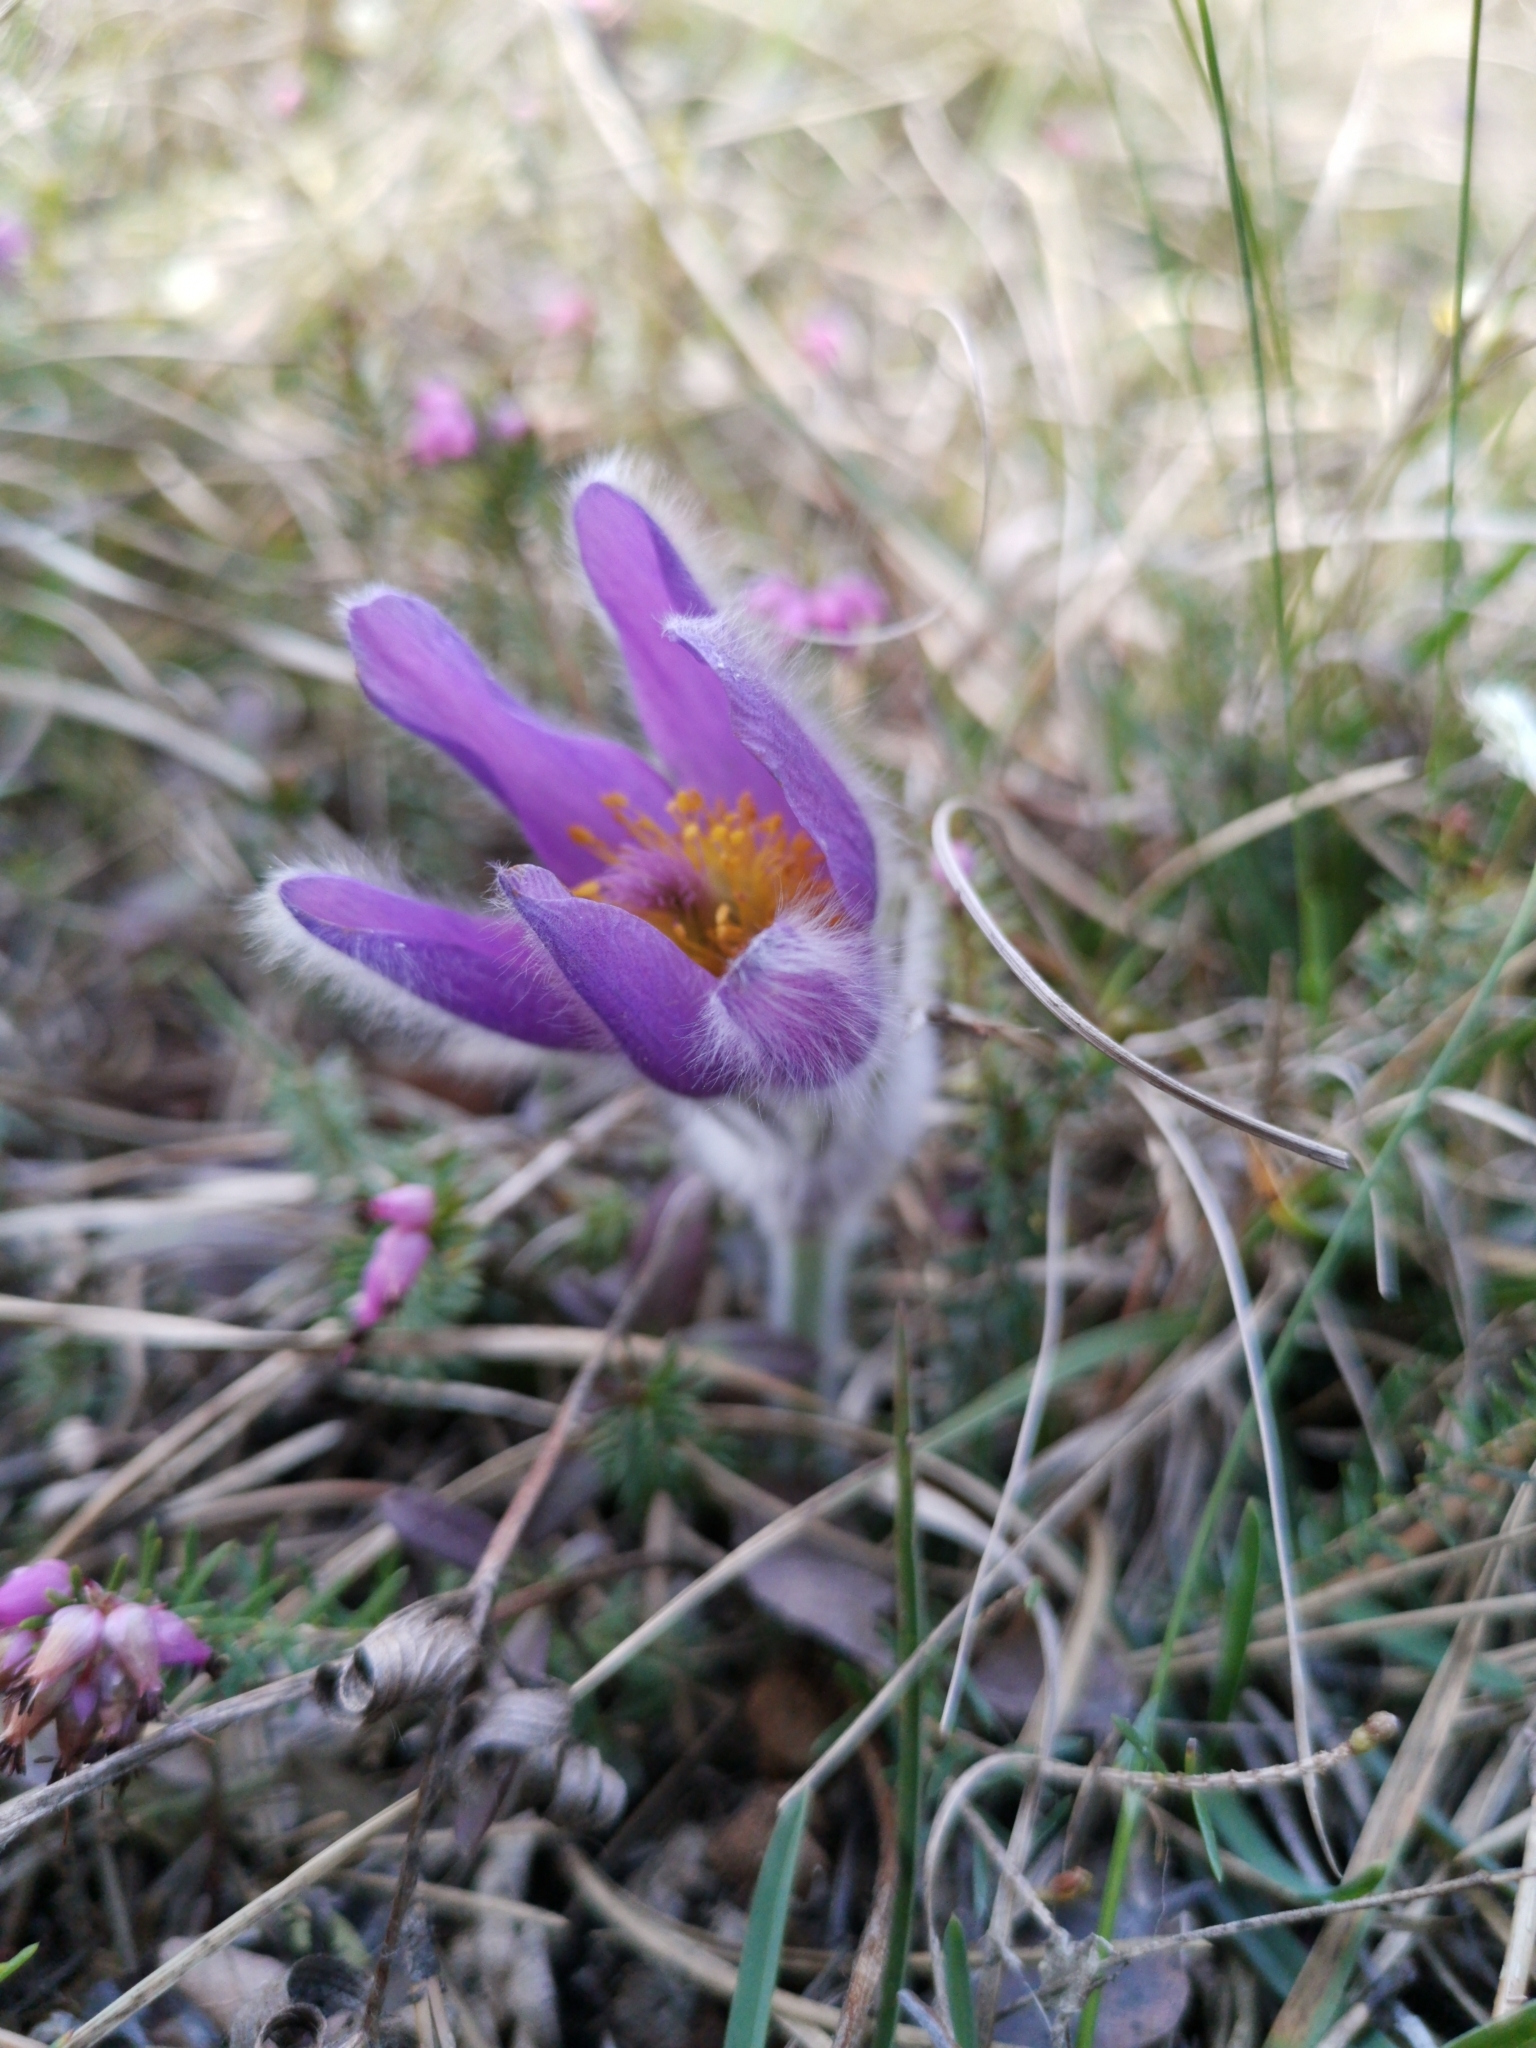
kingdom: Plantae
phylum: Tracheophyta
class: Magnoliopsida
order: Ranunculales
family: Ranunculaceae
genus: Pulsatilla
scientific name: Pulsatilla grandis
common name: Greater pasque flower
